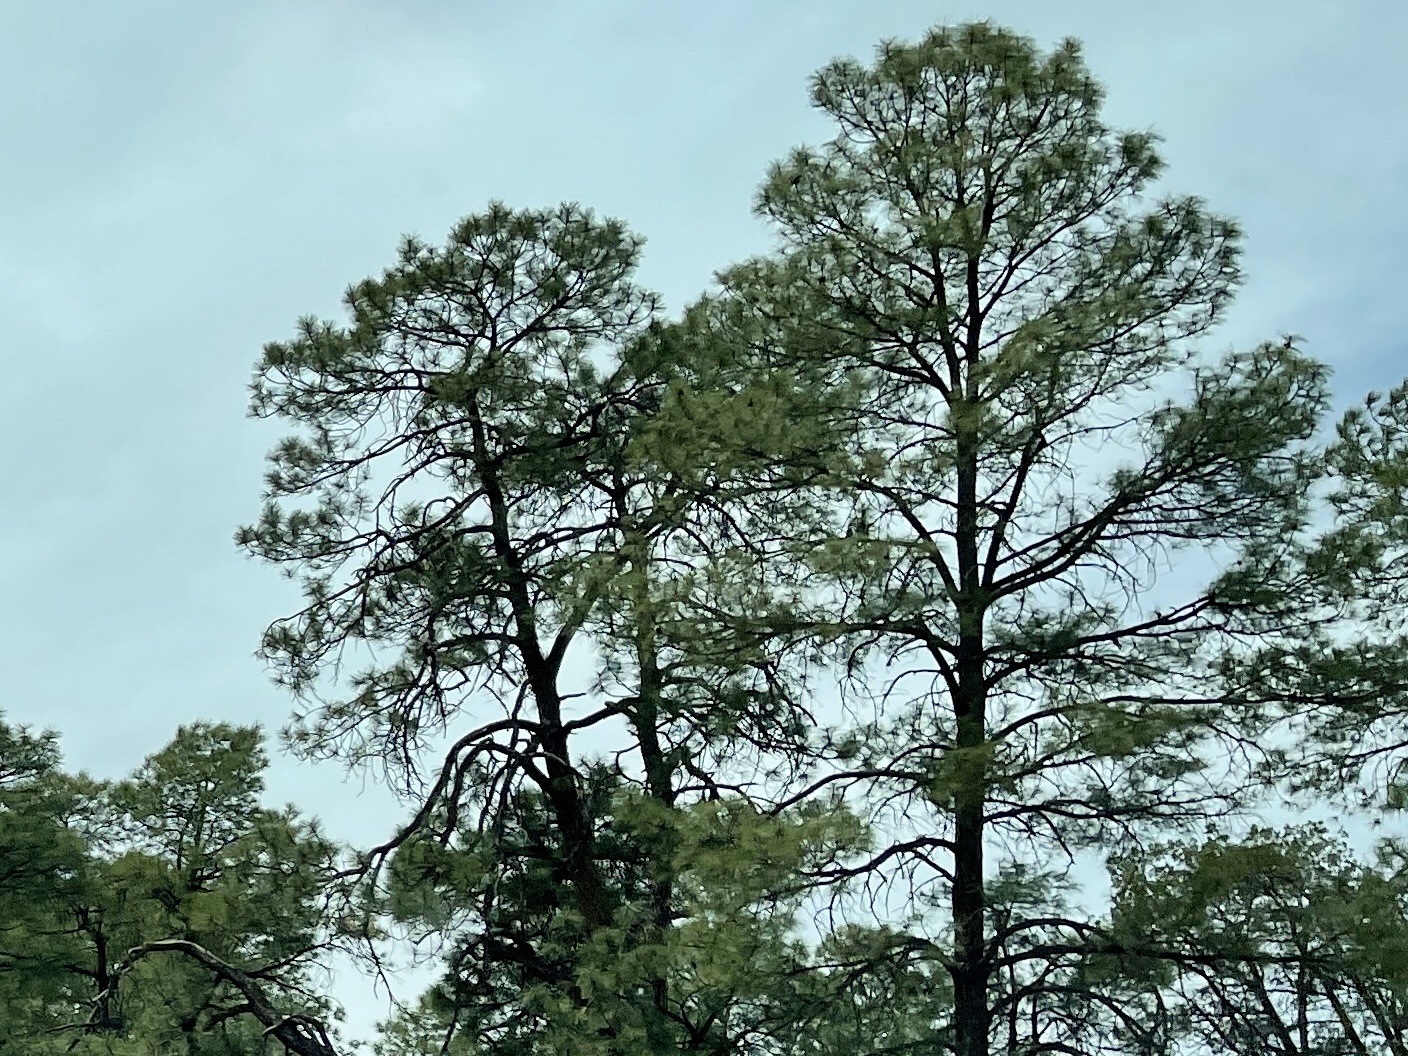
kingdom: Plantae
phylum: Tracheophyta
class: Pinopsida
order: Pinales
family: Pinaceae
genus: Pinus
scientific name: Pinus ponderosa
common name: Western yellow-pine
